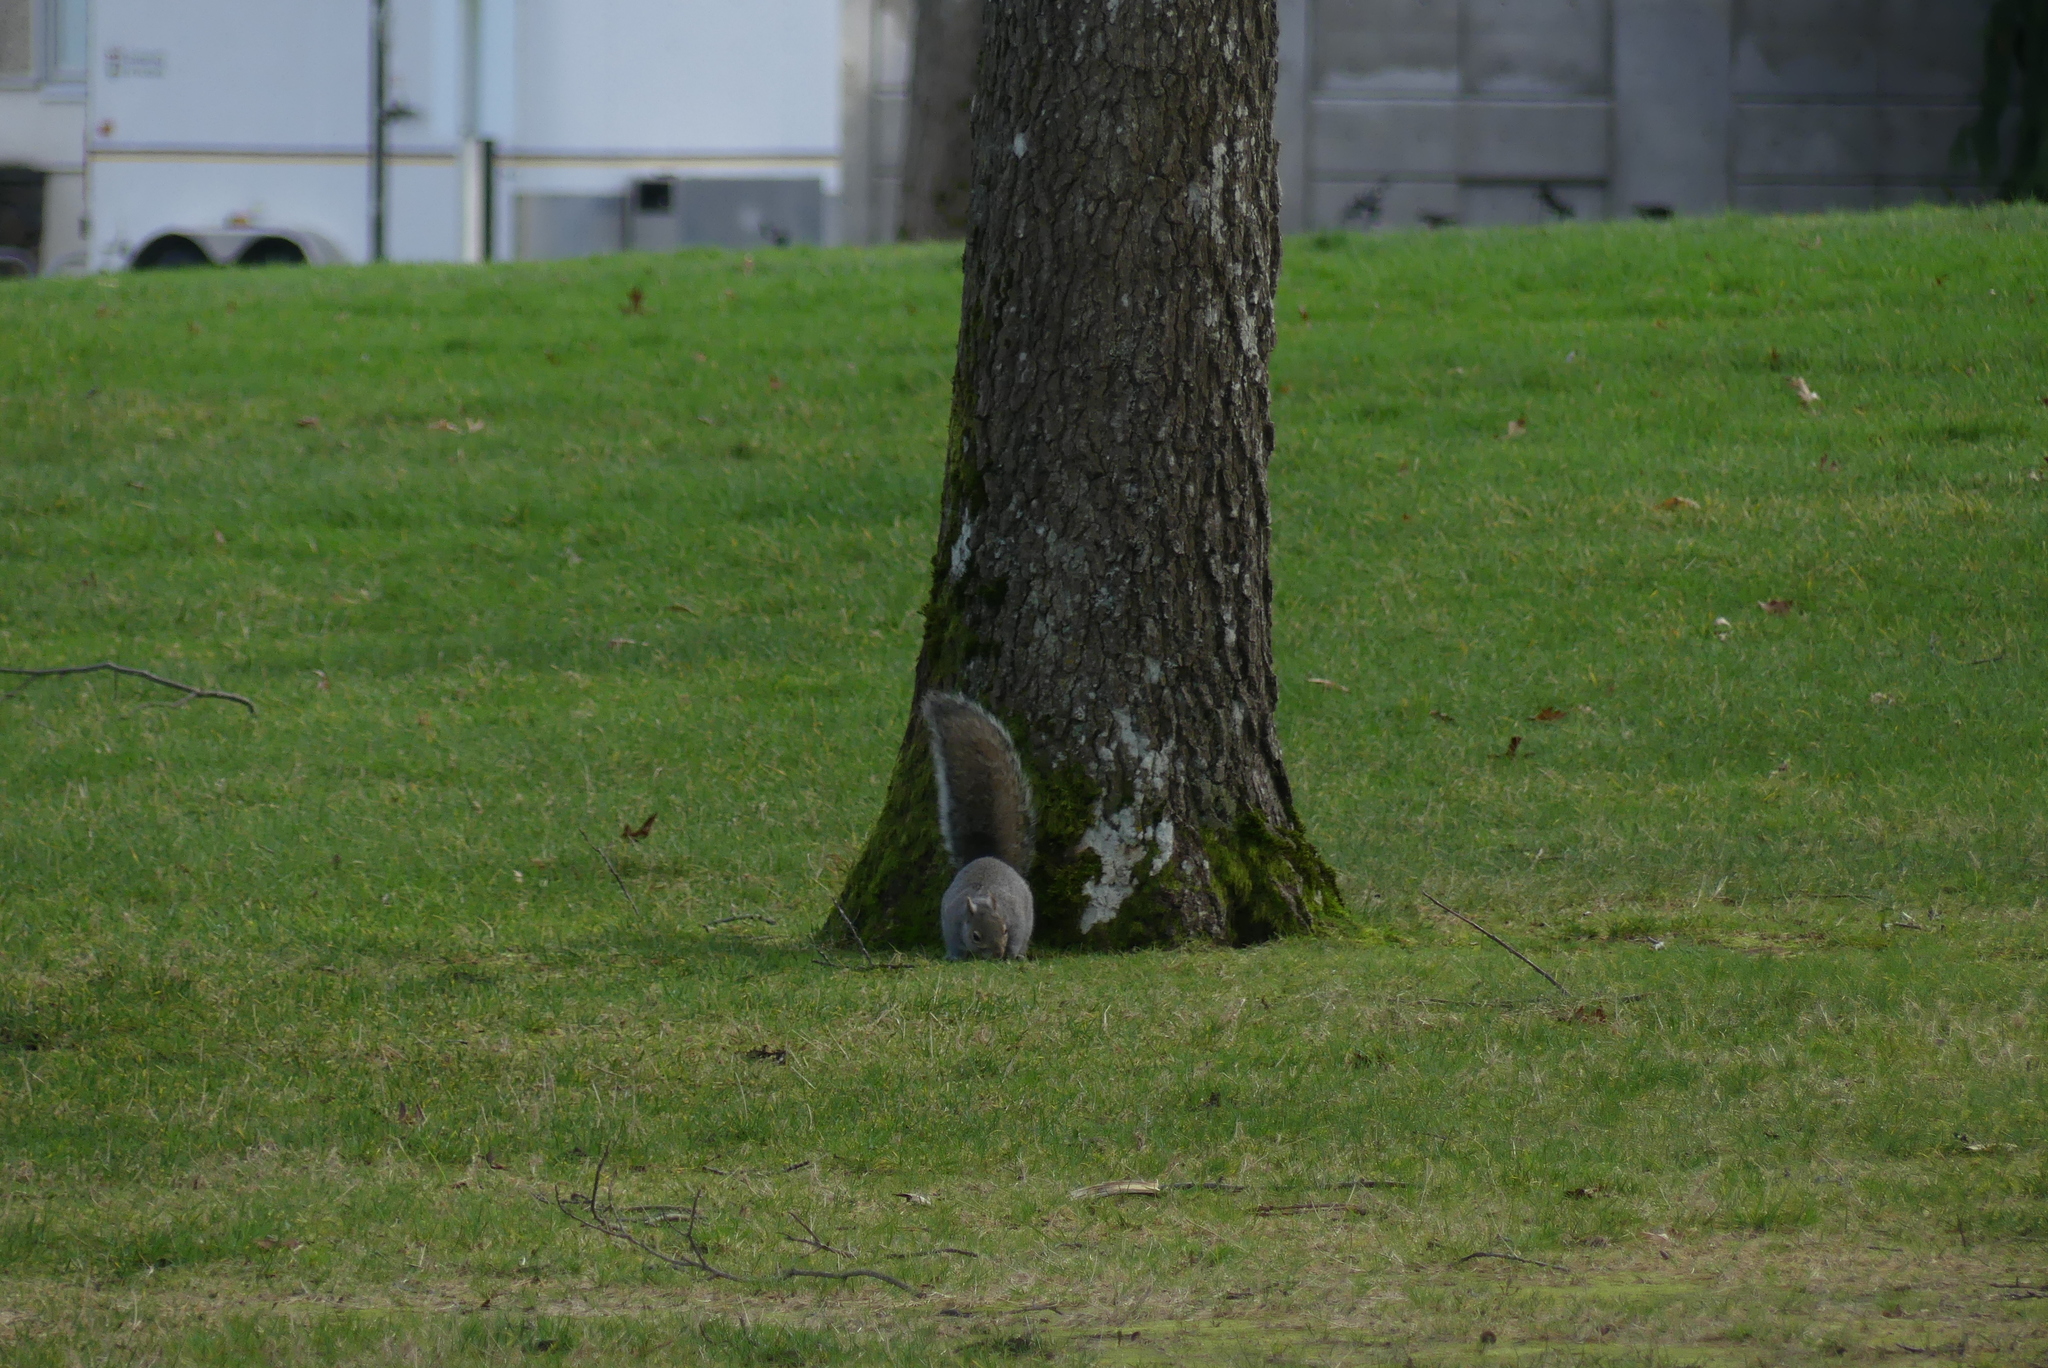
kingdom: Animalia
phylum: Chordata
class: Mammalia
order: Rodentia
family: Sciuridae
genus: Sciurus
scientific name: Sciurus carolinensis
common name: Eastern gray squirrel
